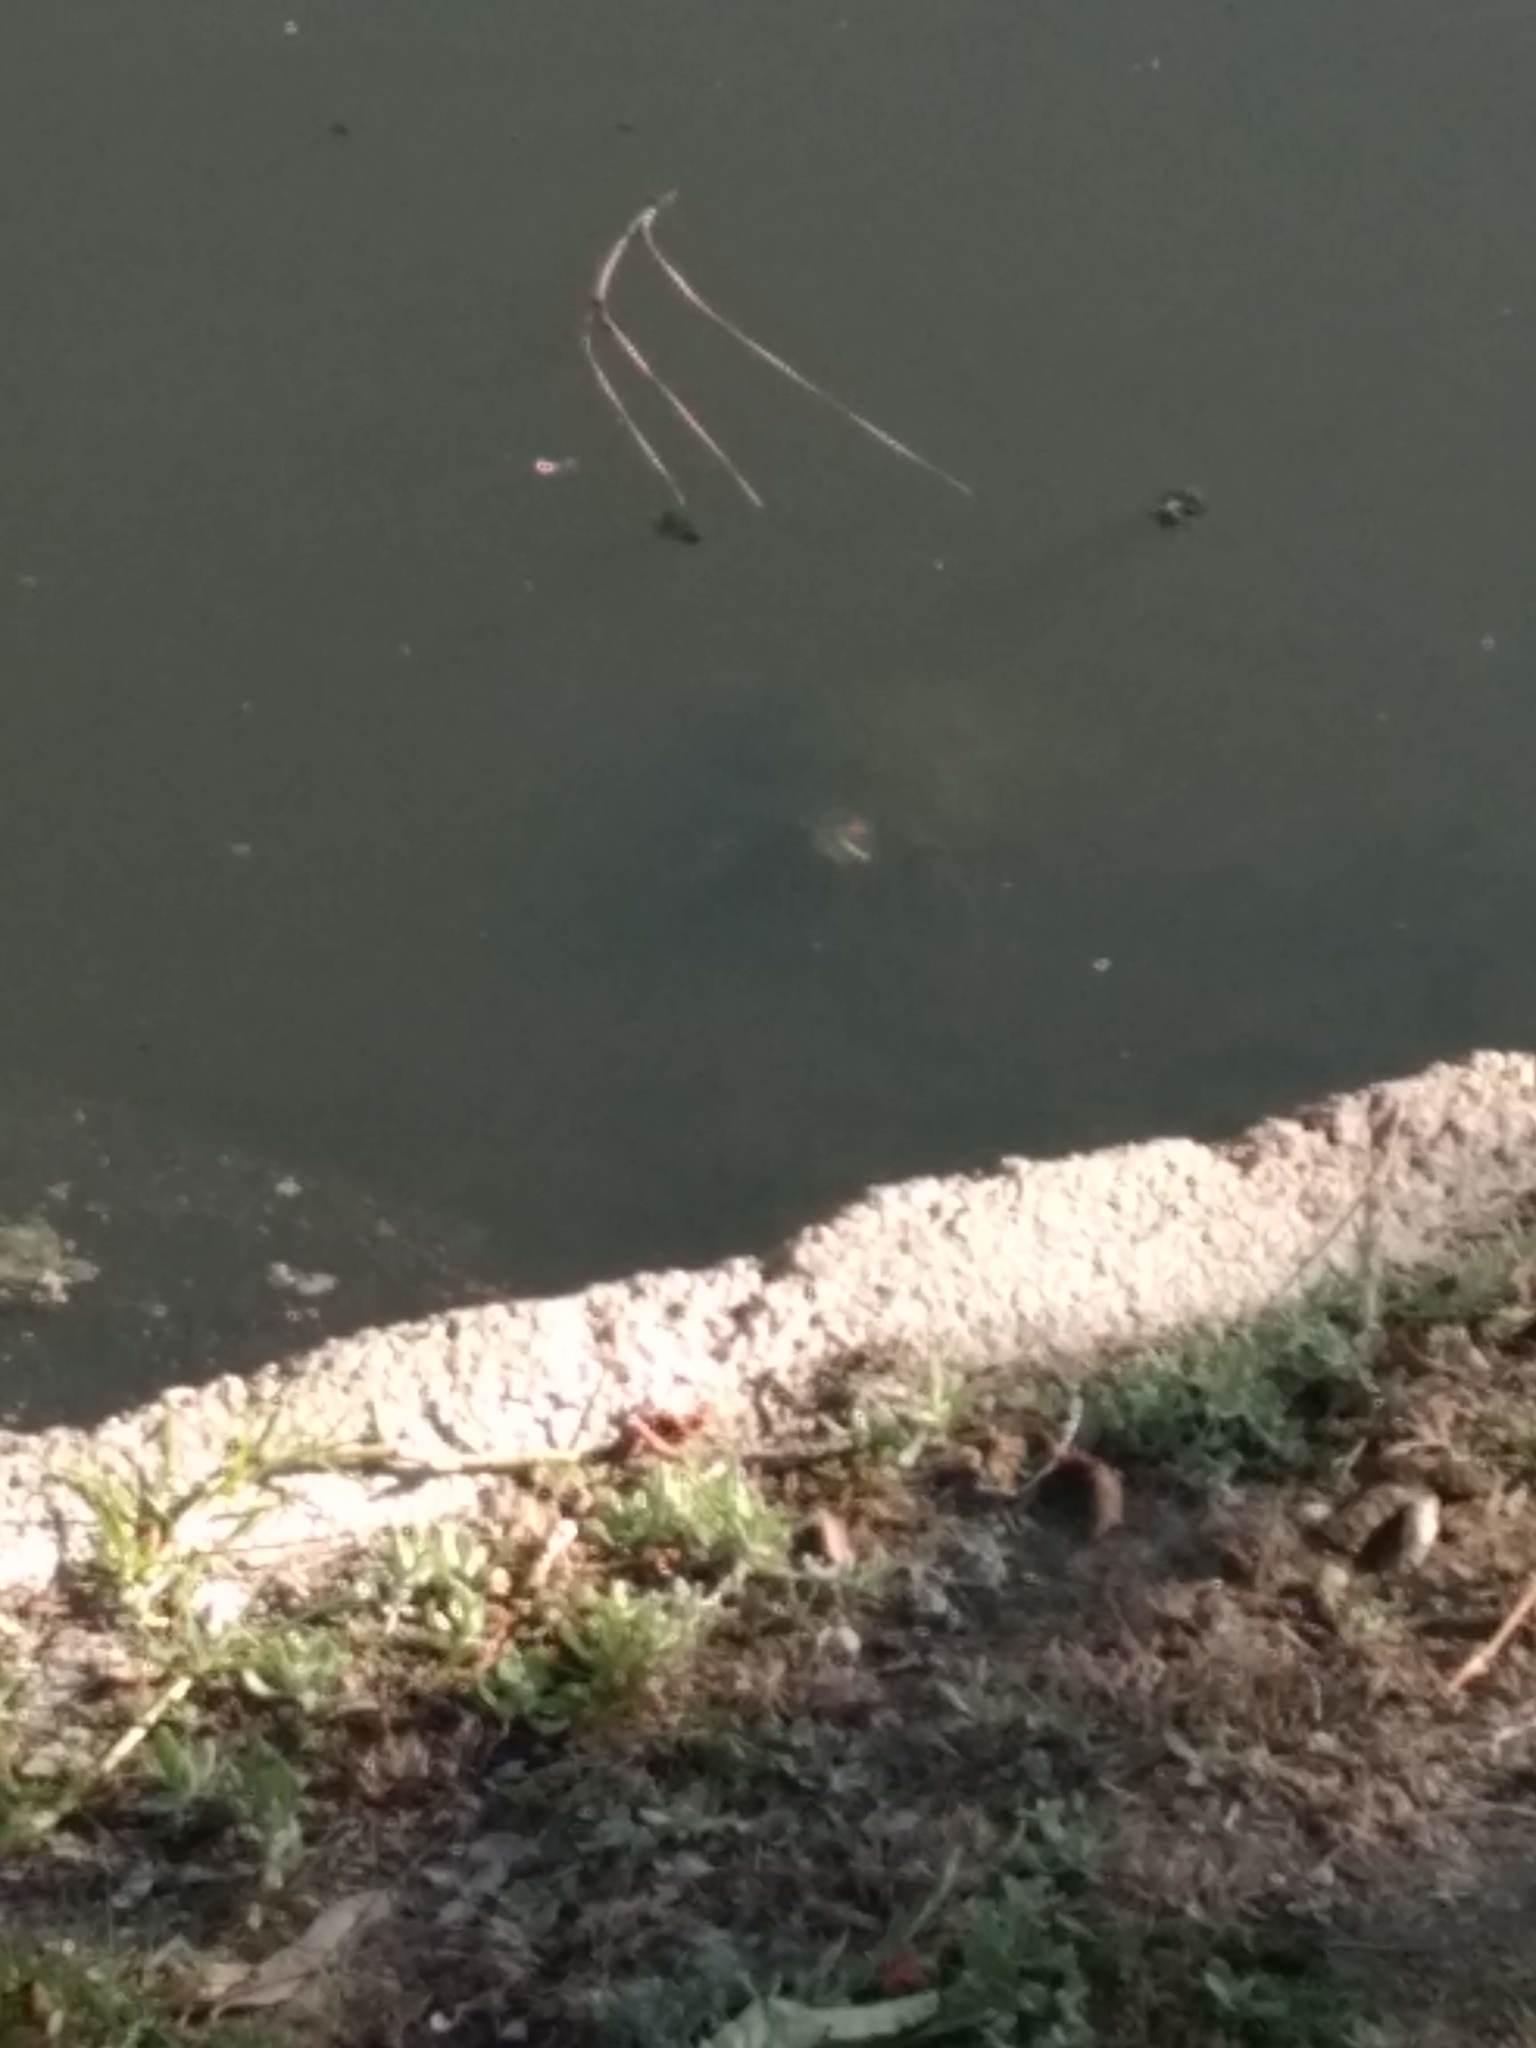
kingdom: Animalia
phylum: Chordata
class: Testudines
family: Emydidae
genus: Trachemys
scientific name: Trachemys scripta
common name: Slider
